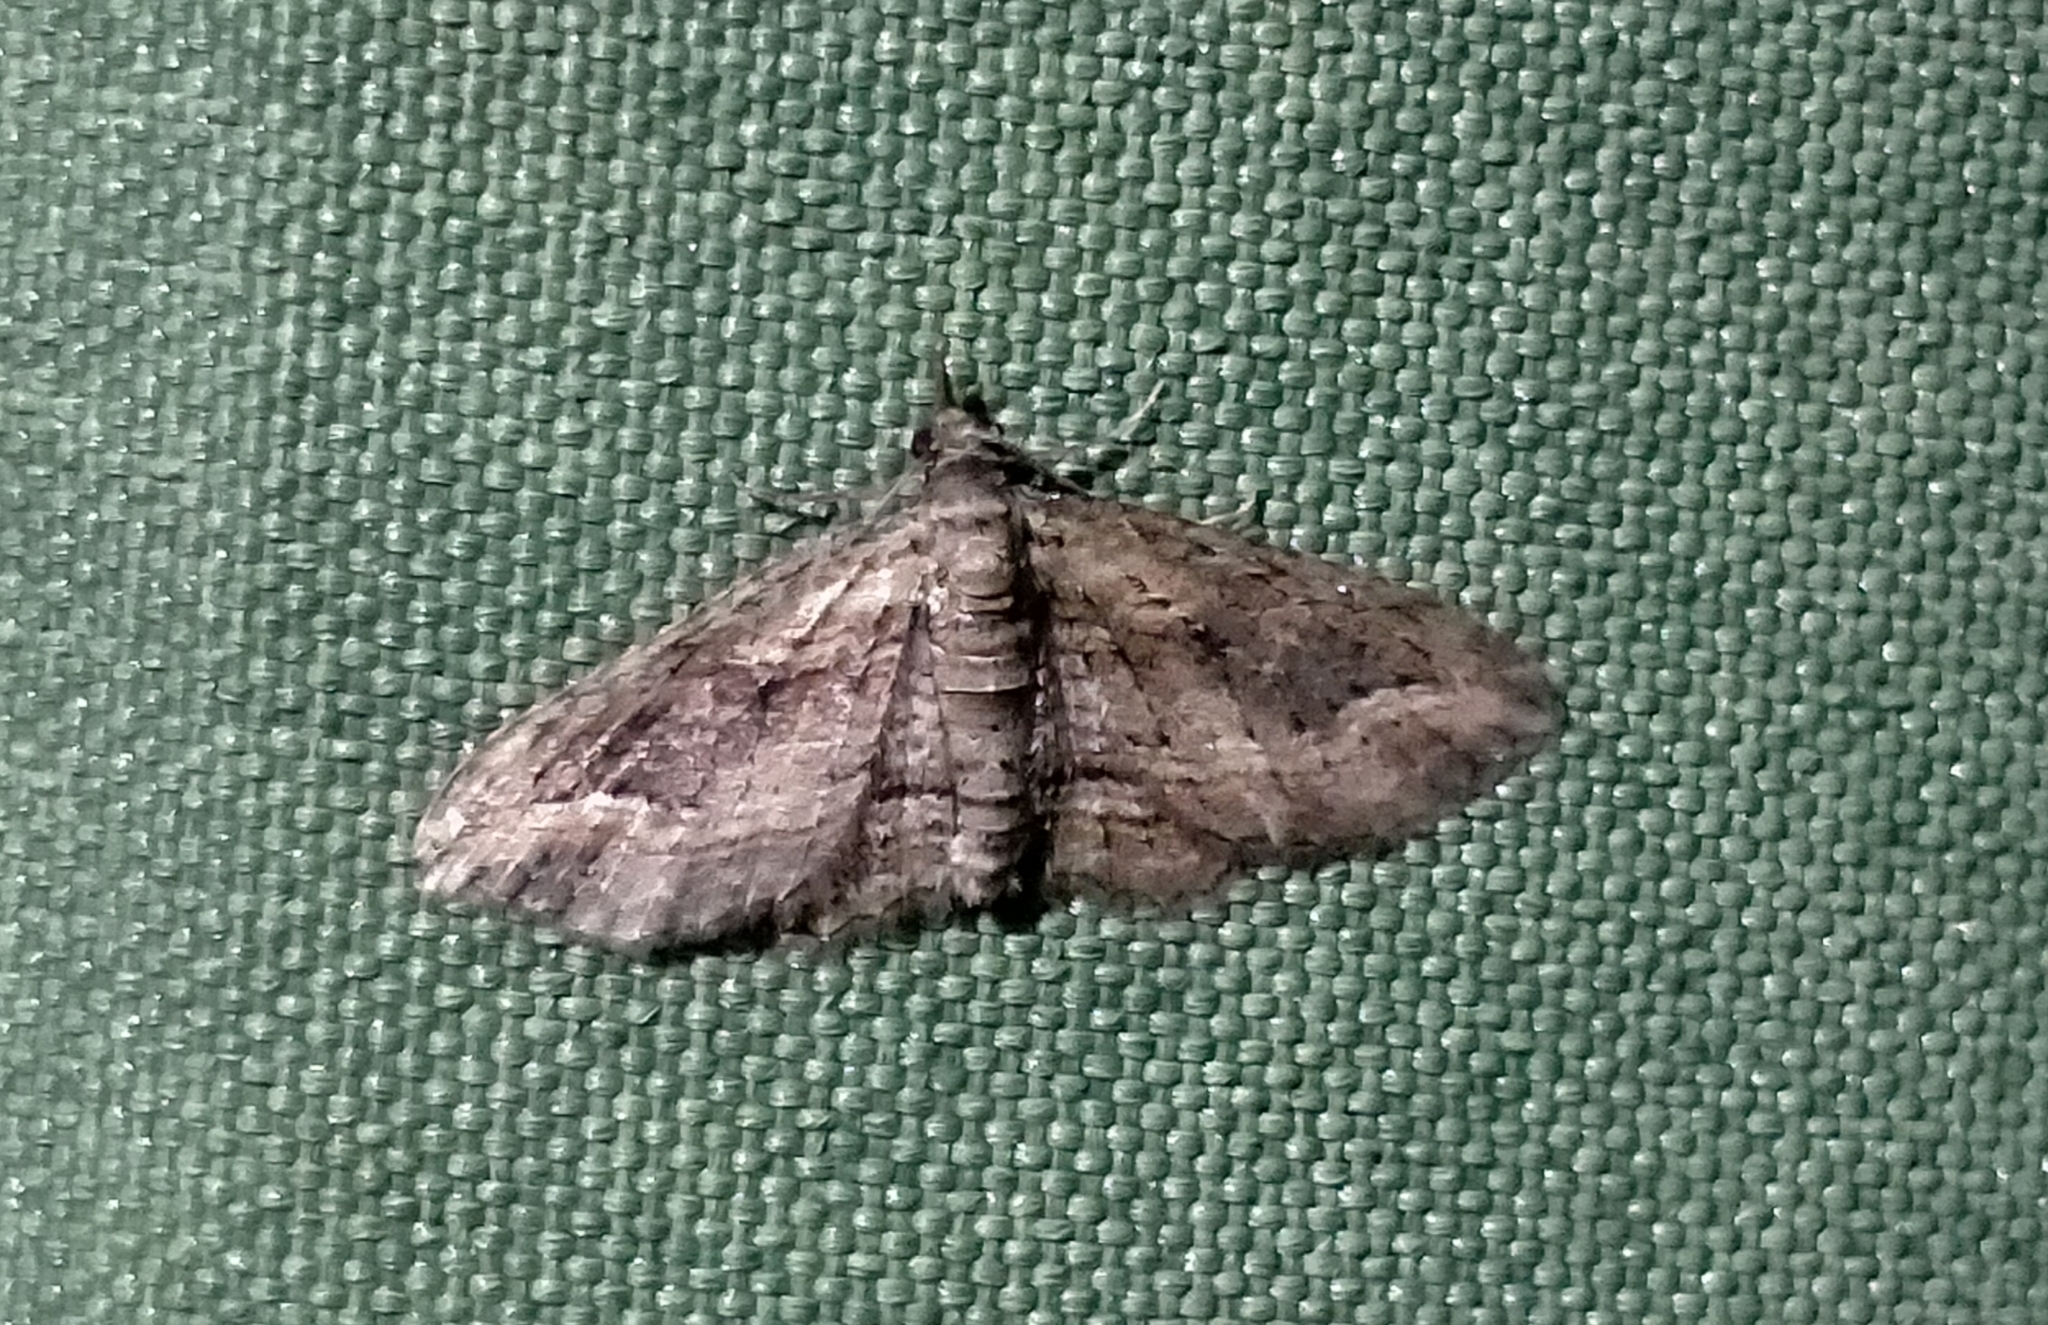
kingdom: Animalia
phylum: Arthropoda
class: Insecta
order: Lepidoptera
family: Geometridae
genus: Chloroclystis
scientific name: Chloroclystis filata
